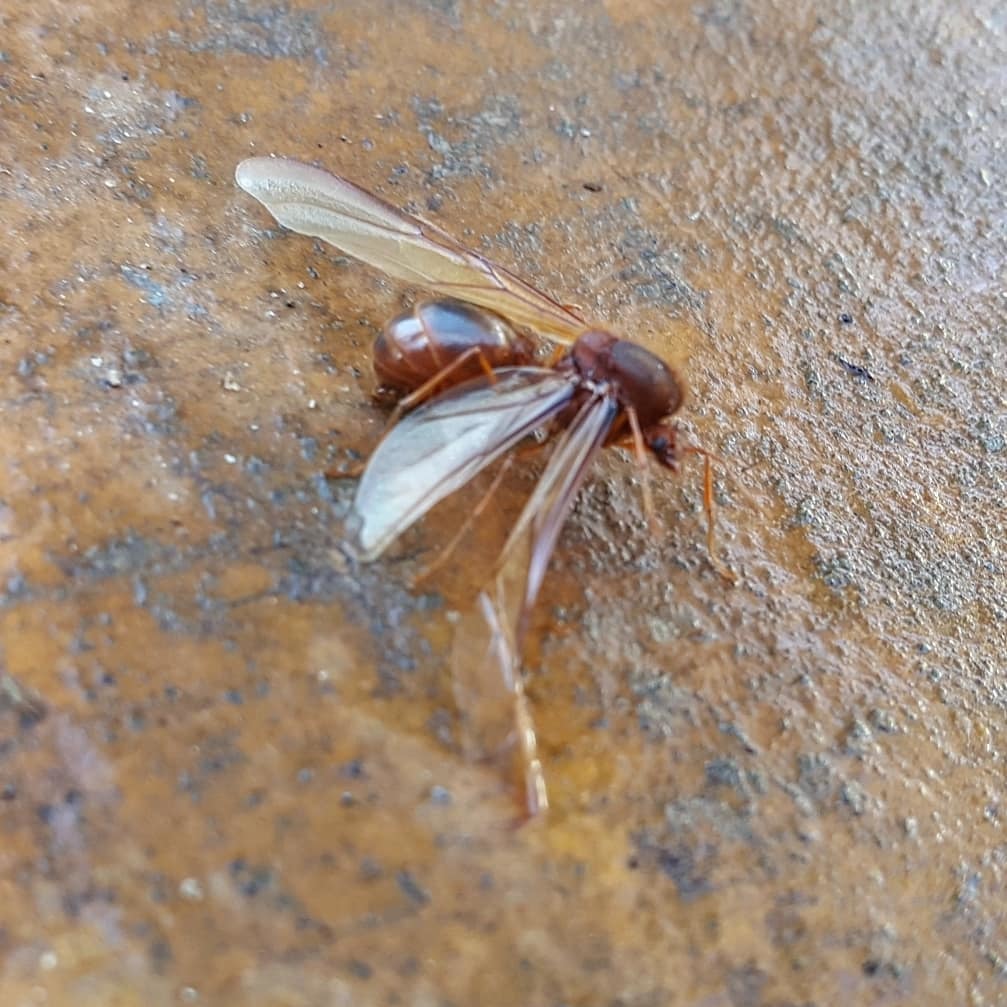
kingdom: Animalia
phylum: Arthropoda
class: Insecta
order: Hymenoptera
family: Formicidae
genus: Atta
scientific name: Atta mexicana
